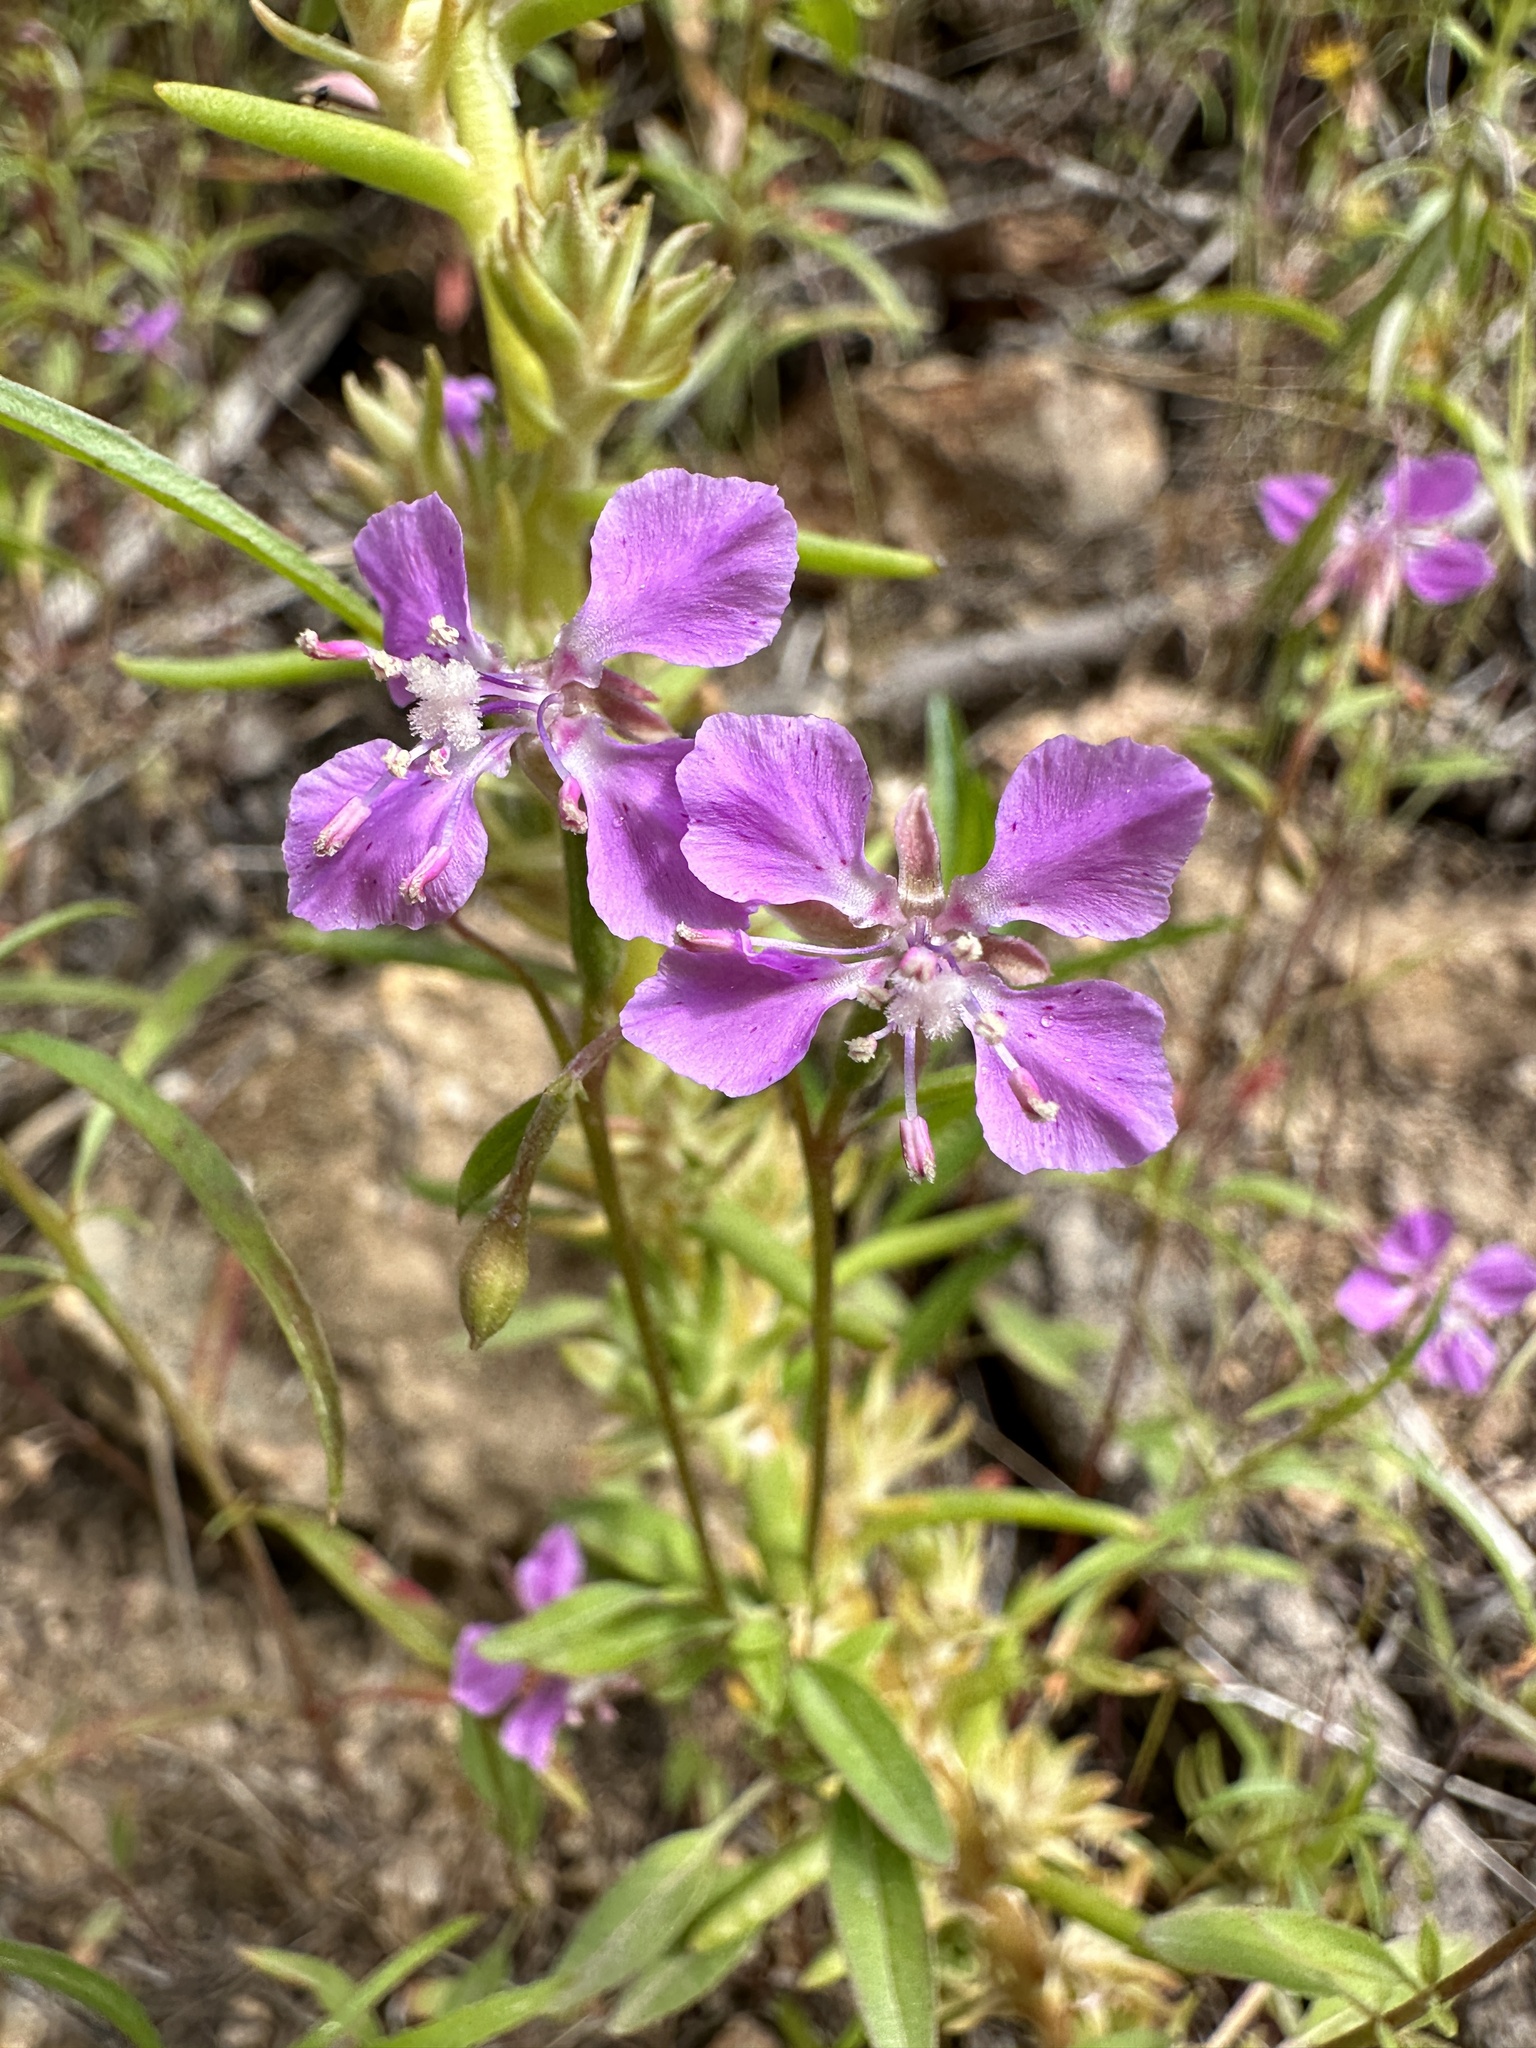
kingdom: Plantae
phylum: Tracheophyta
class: Magnoliopsida
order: Myrtales
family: Onagraceae
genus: Clarkia
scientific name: Clarkia rhomboidea
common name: Broadleaf clarkia
